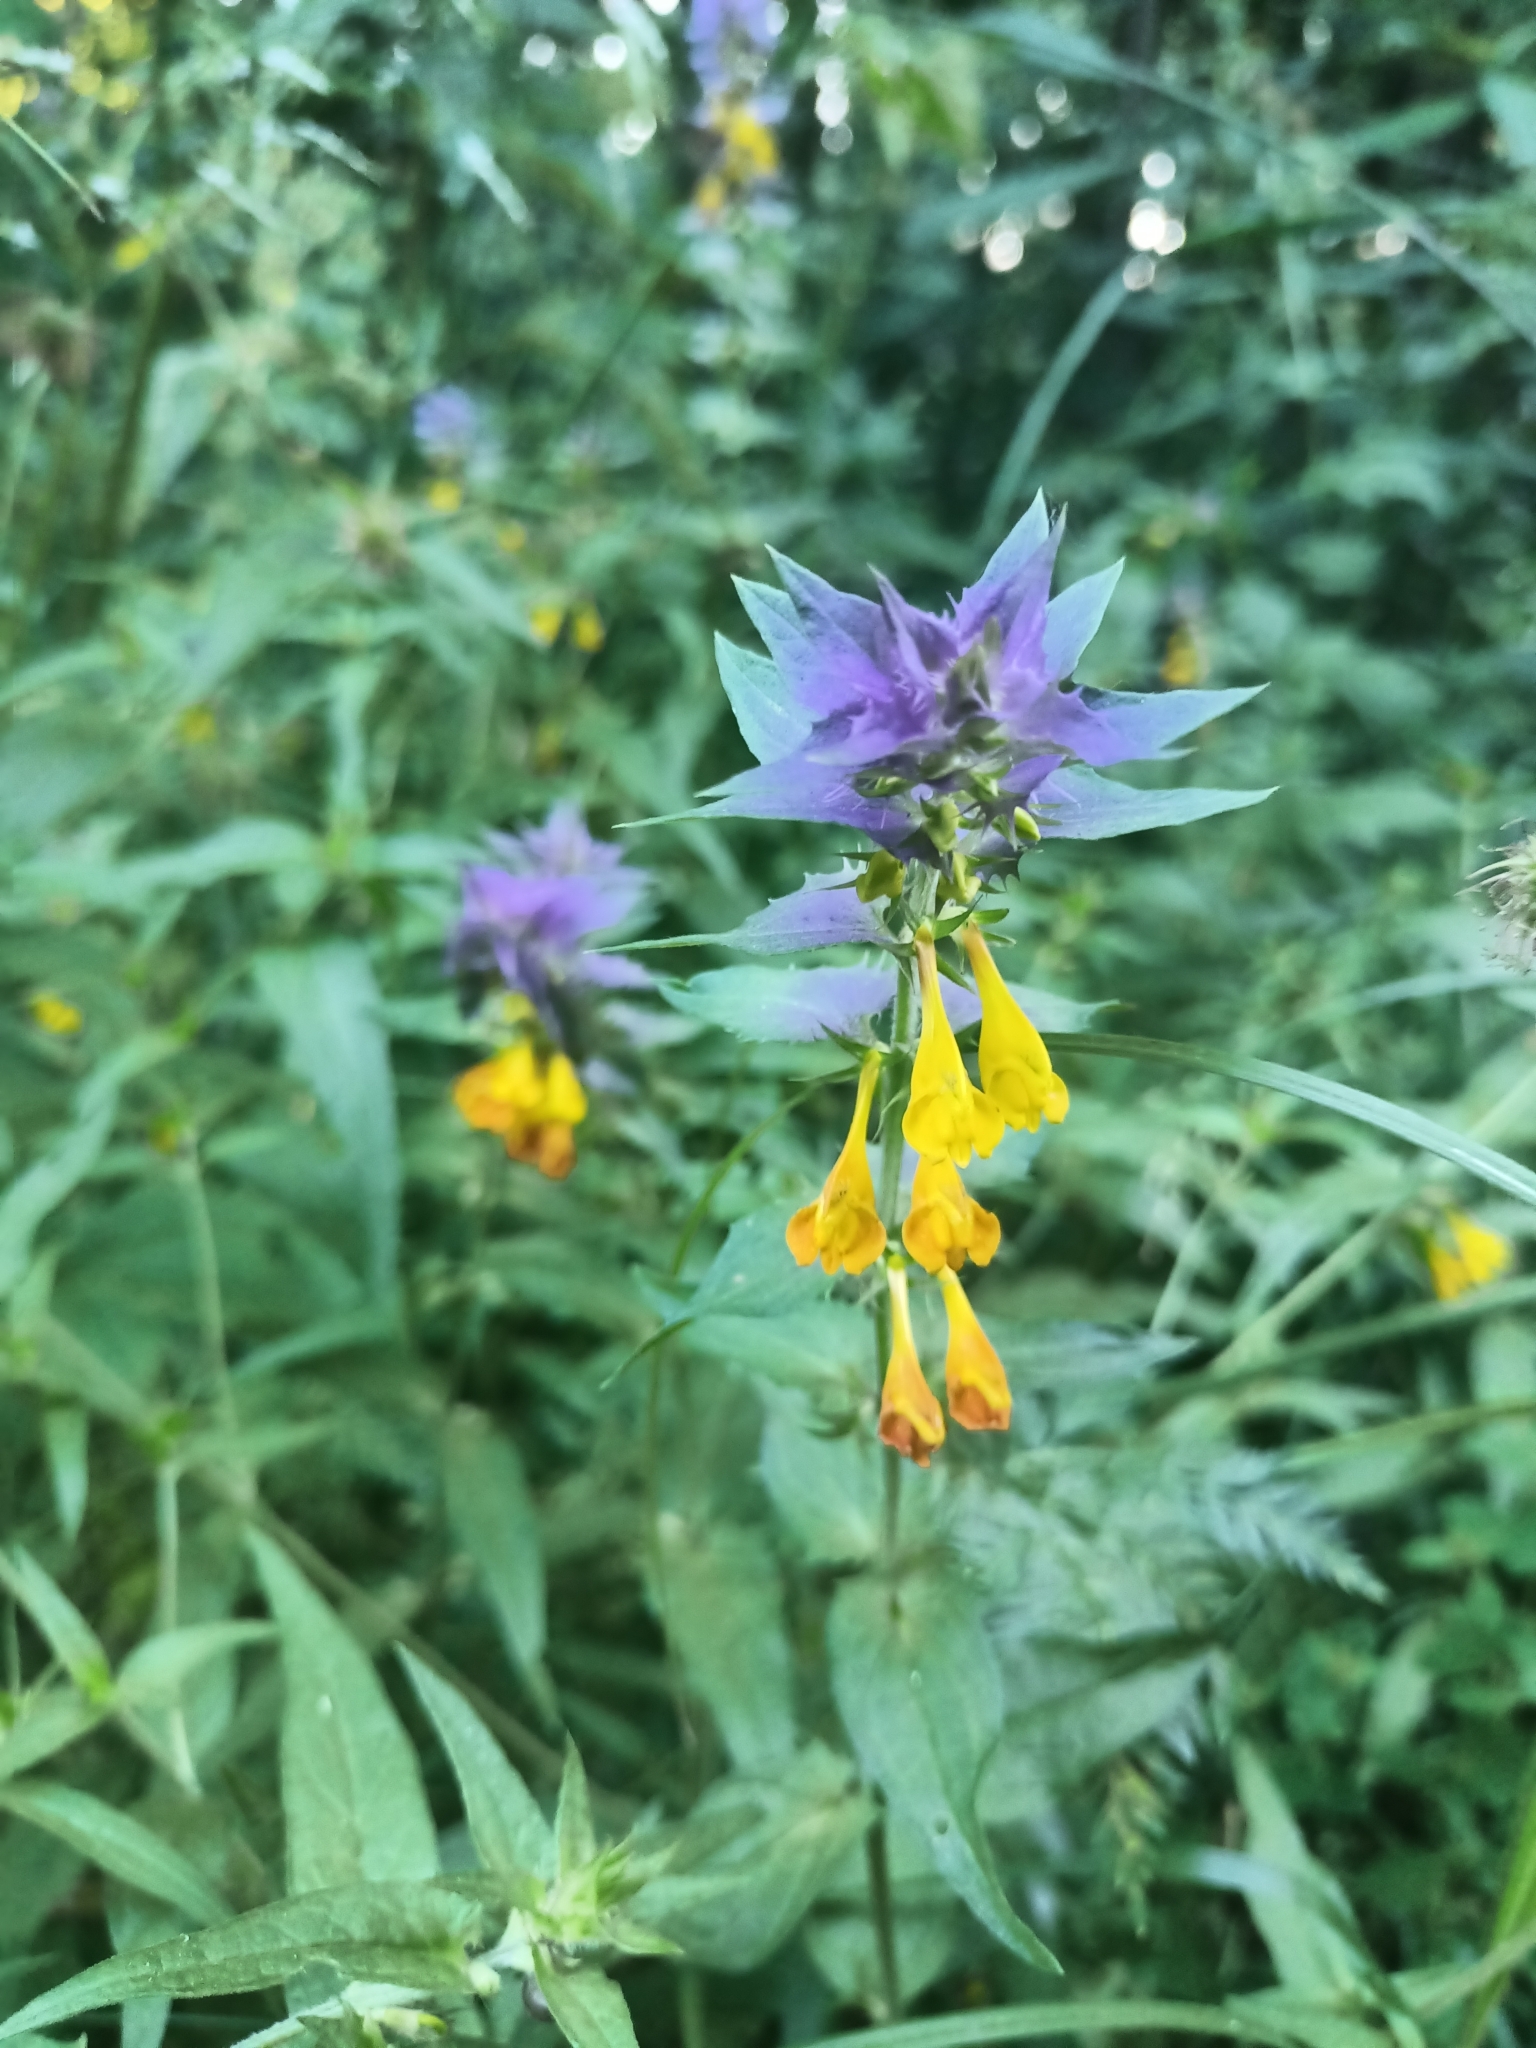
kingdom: Plantae
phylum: Tracheophyta
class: Magnoliopsida
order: Lamiales
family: Orobanchaceae
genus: Melampyrum
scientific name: Melampyrum nemorosum
